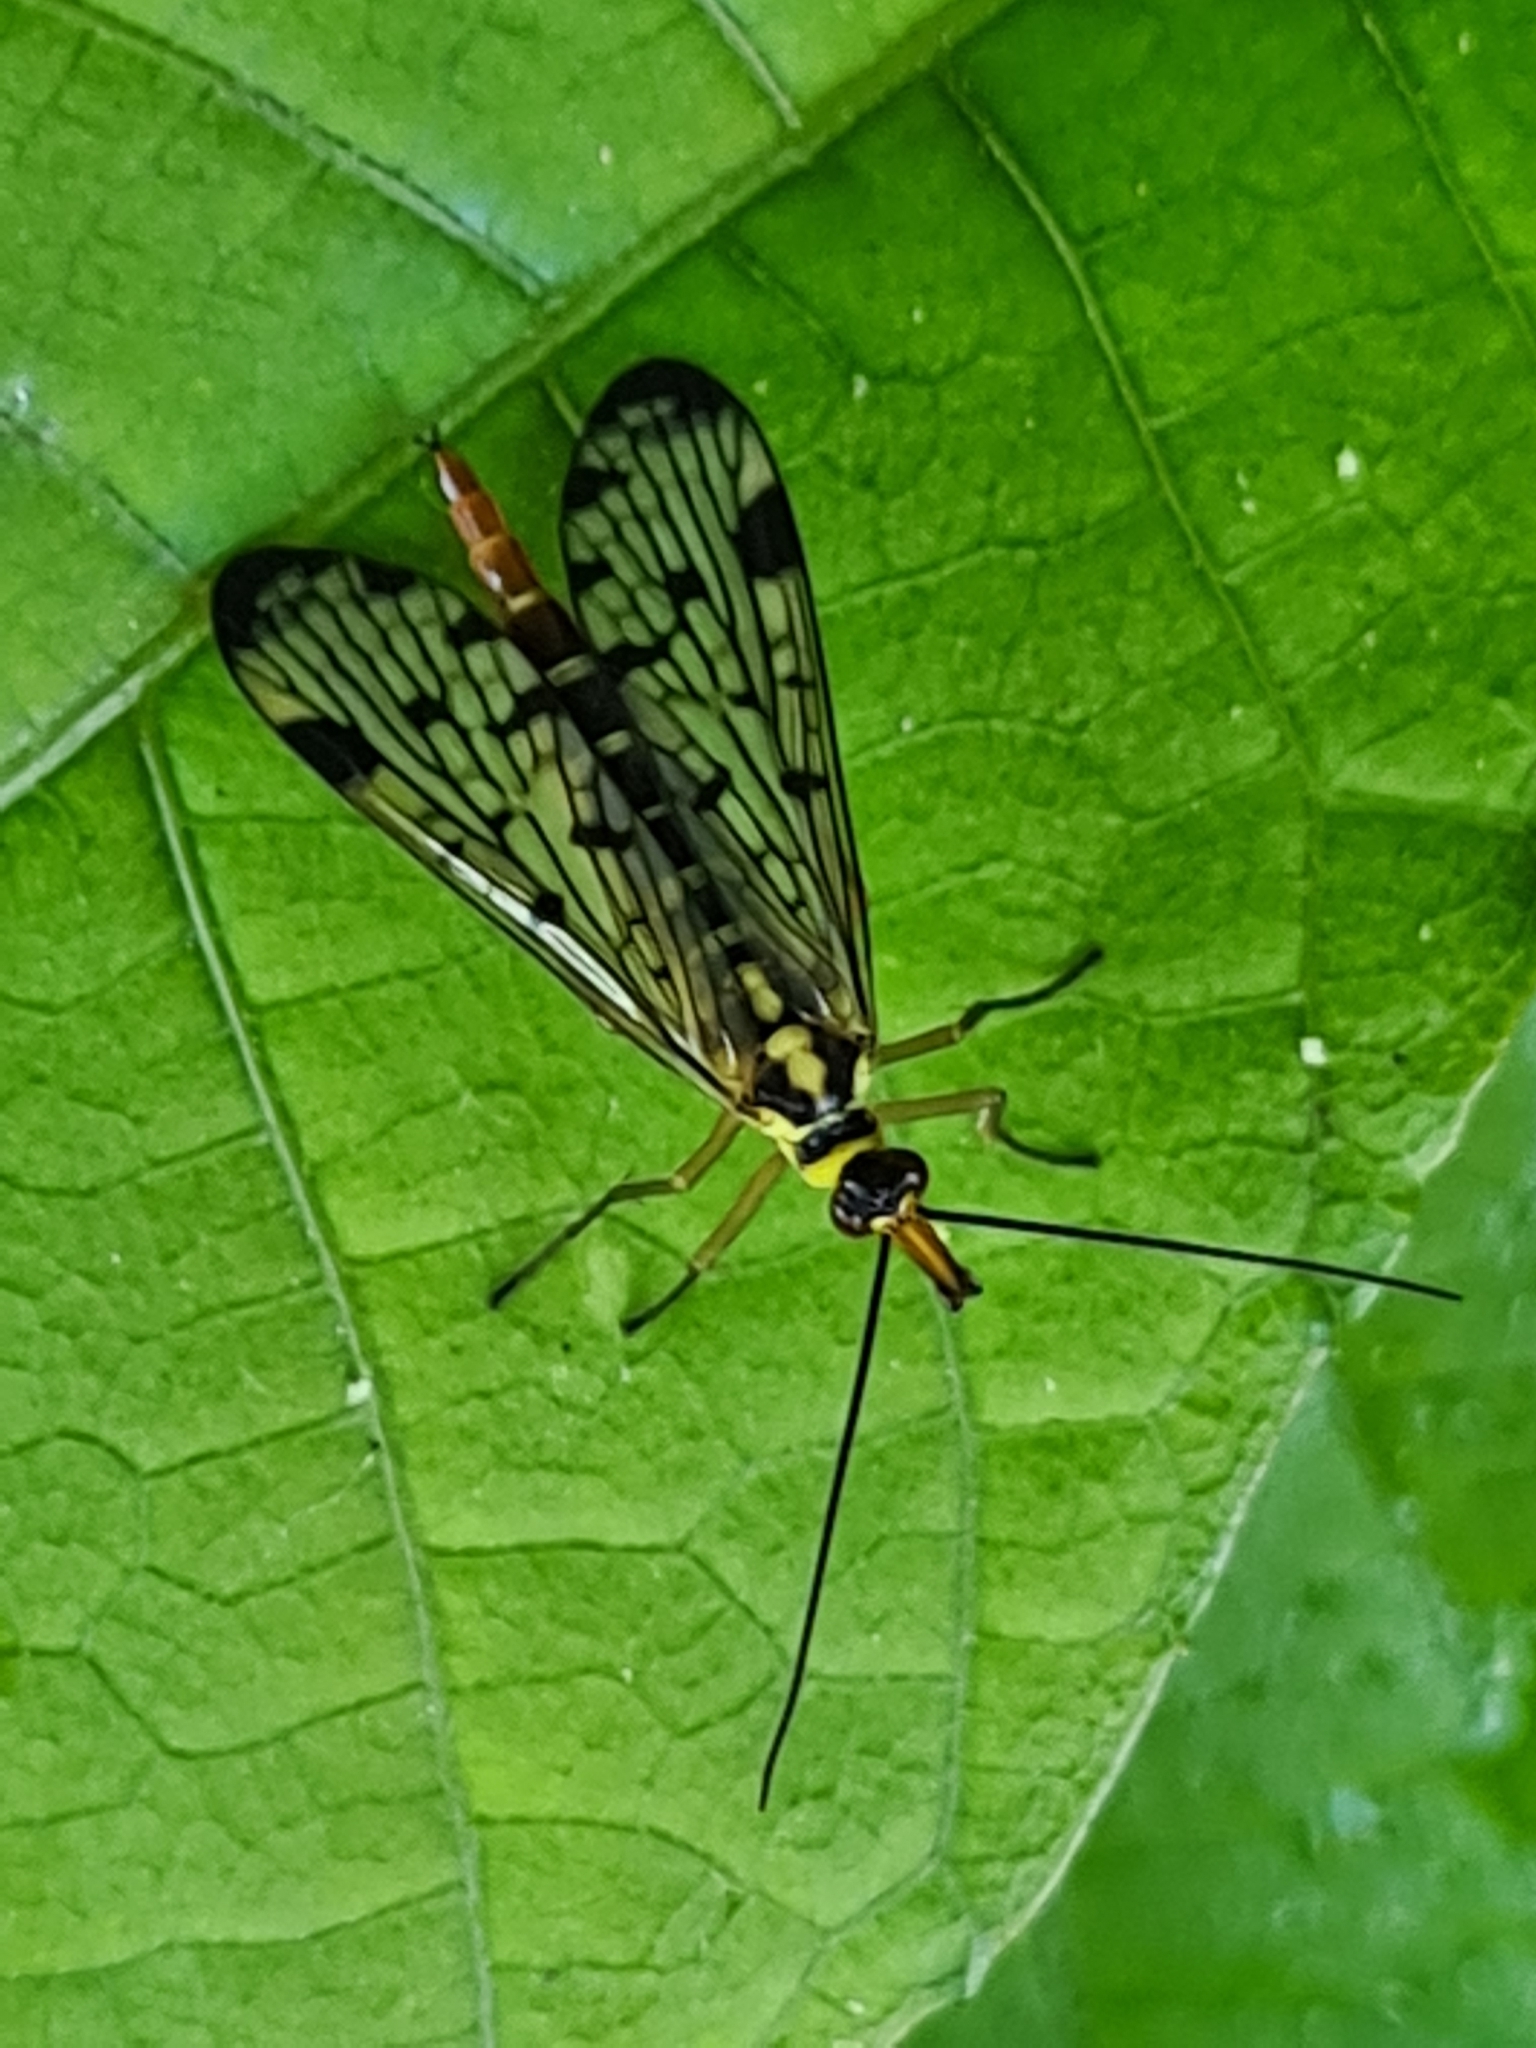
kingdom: Animalia
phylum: Arthropoda
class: Insecta
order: Mecoptera
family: Panorpidae
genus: Panorpa
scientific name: Panorpa germanica
